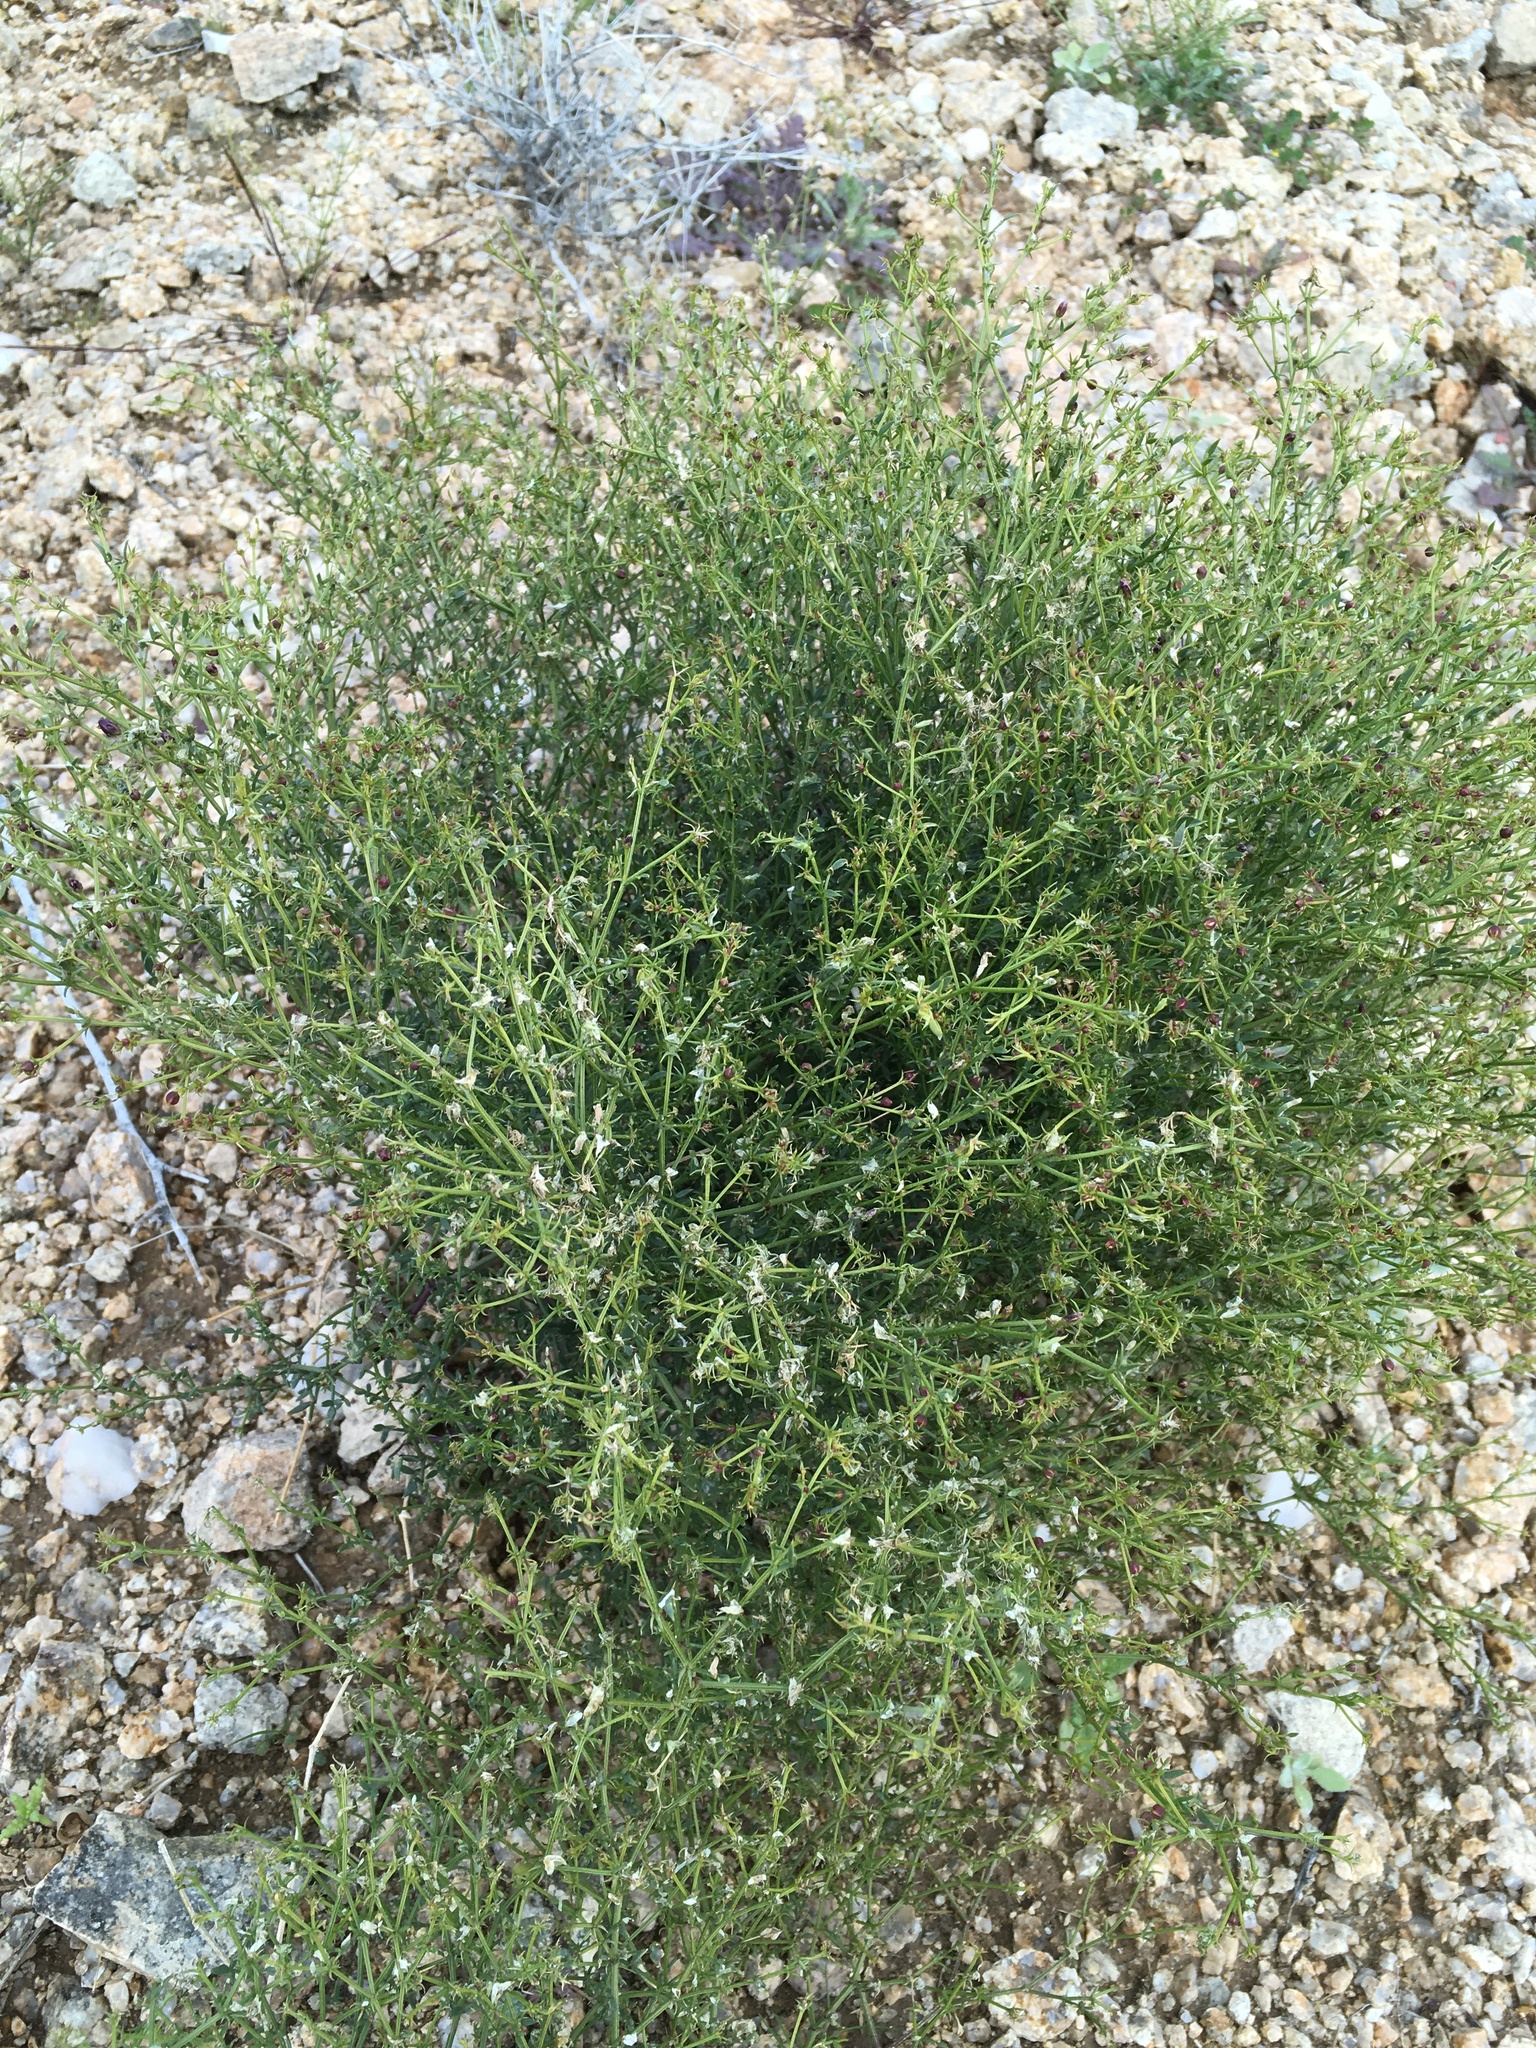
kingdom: Plantae
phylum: Tracheophyta
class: Magnoliopsida
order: Zygophyllales
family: Zygophyllaceae
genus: Fagonia
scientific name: Fagonia laevis
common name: California fagonbush
